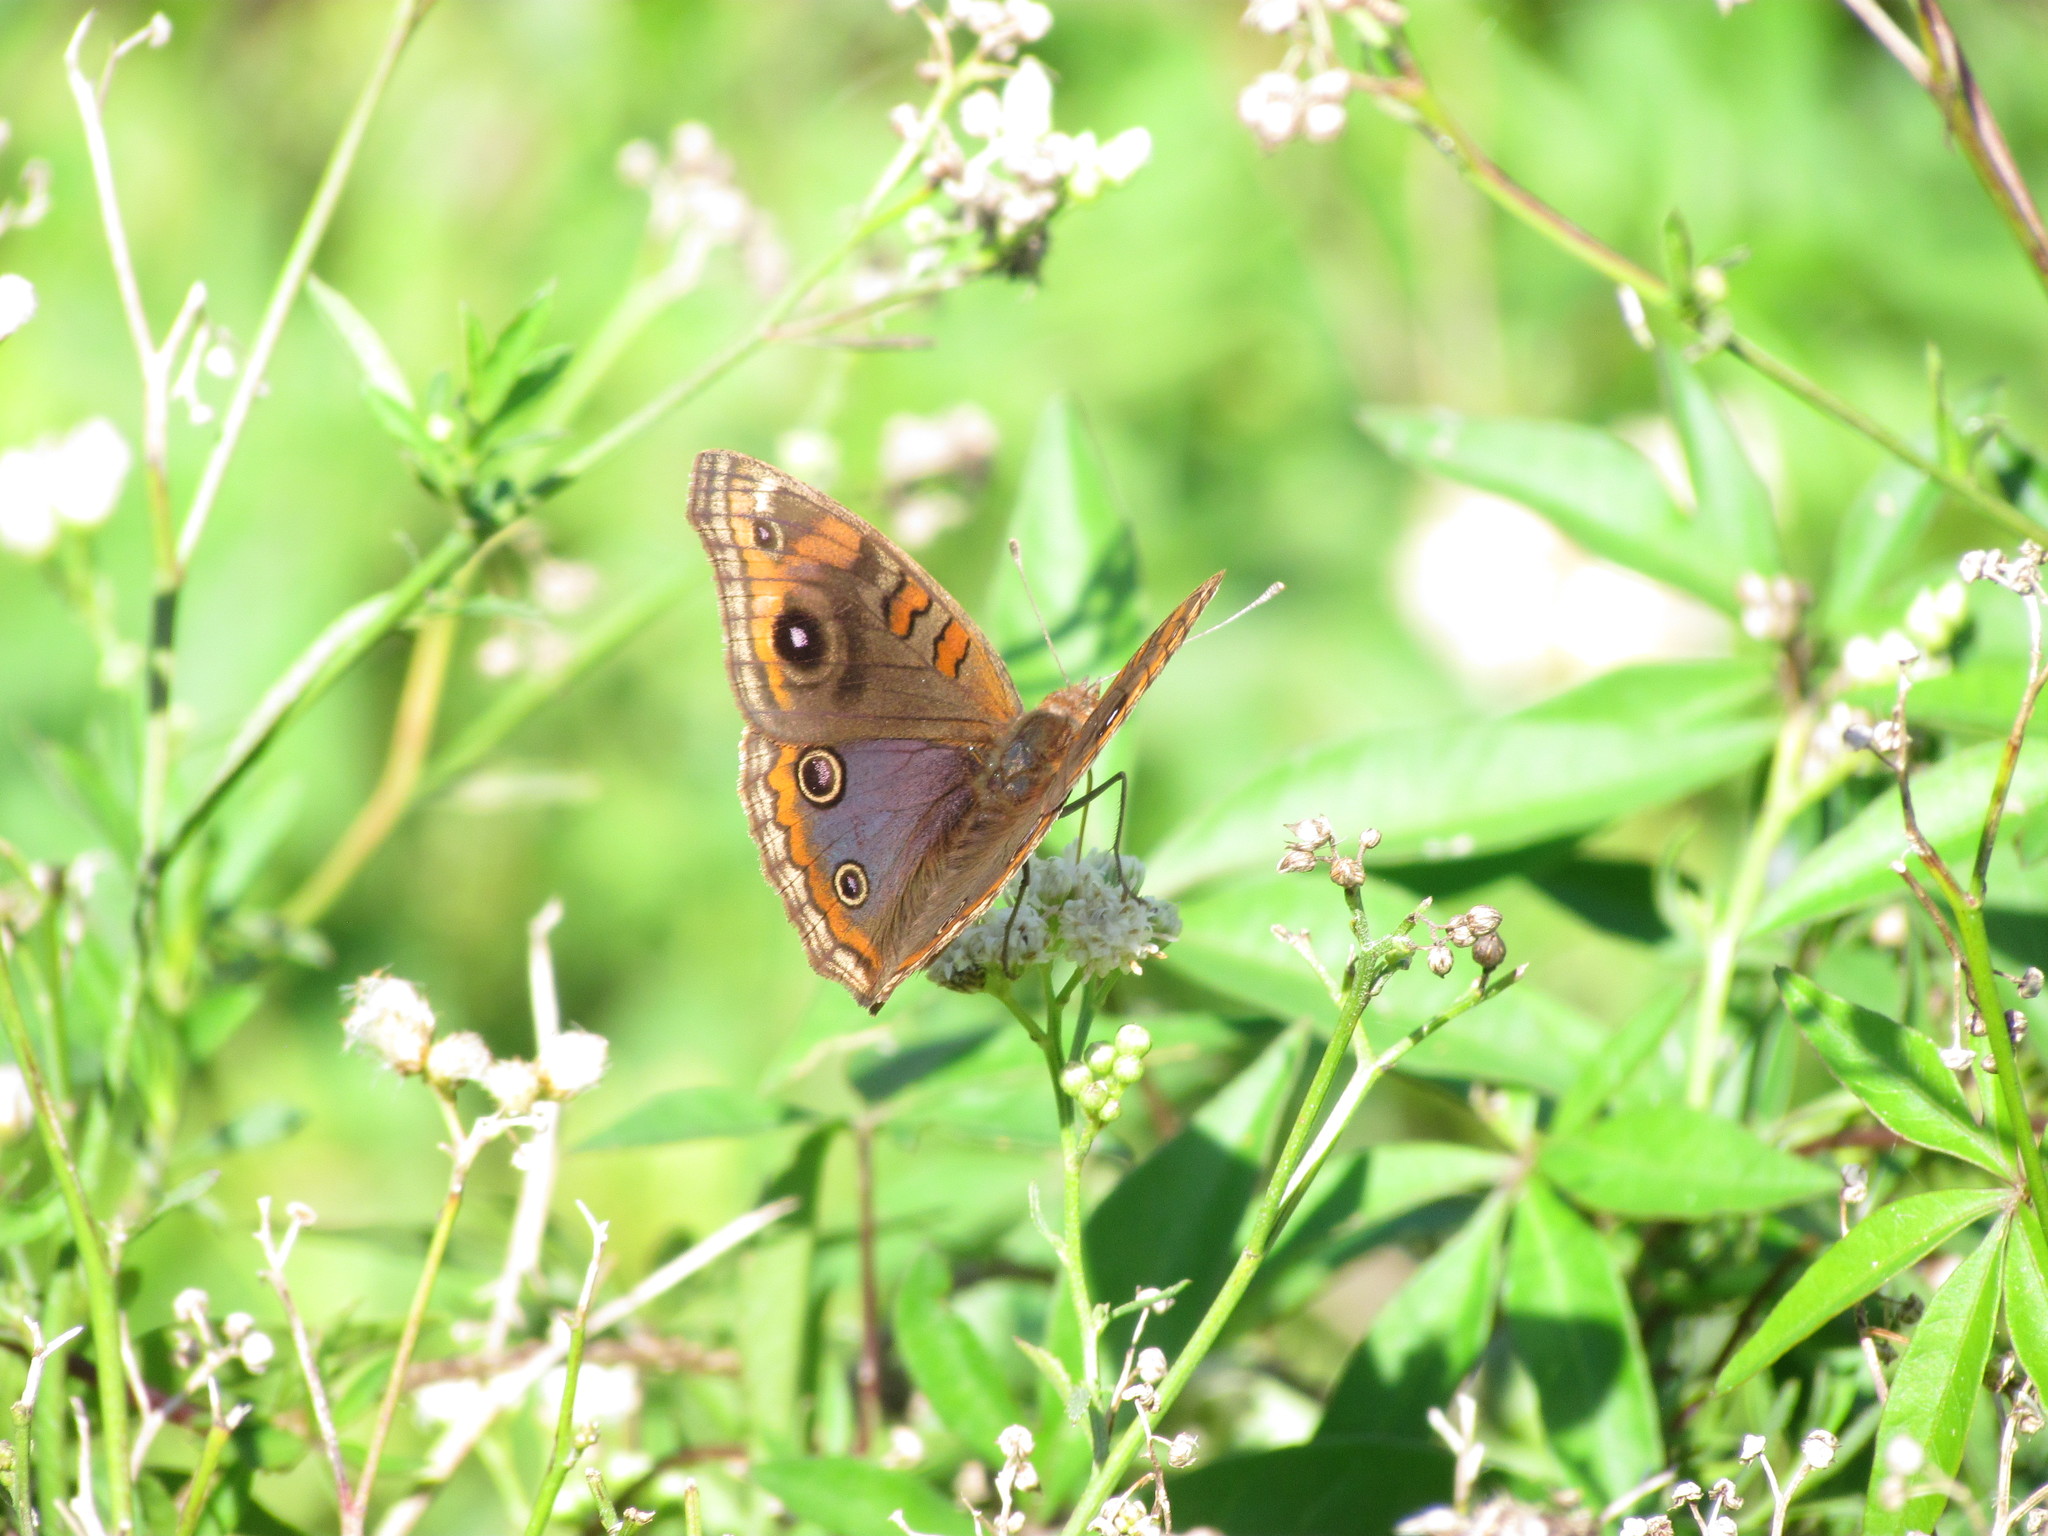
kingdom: Animalia
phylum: Arthropoda
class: Insecta
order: Lepidoptera
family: Nymphalidae
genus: Junonia
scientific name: Junonia lavinia
